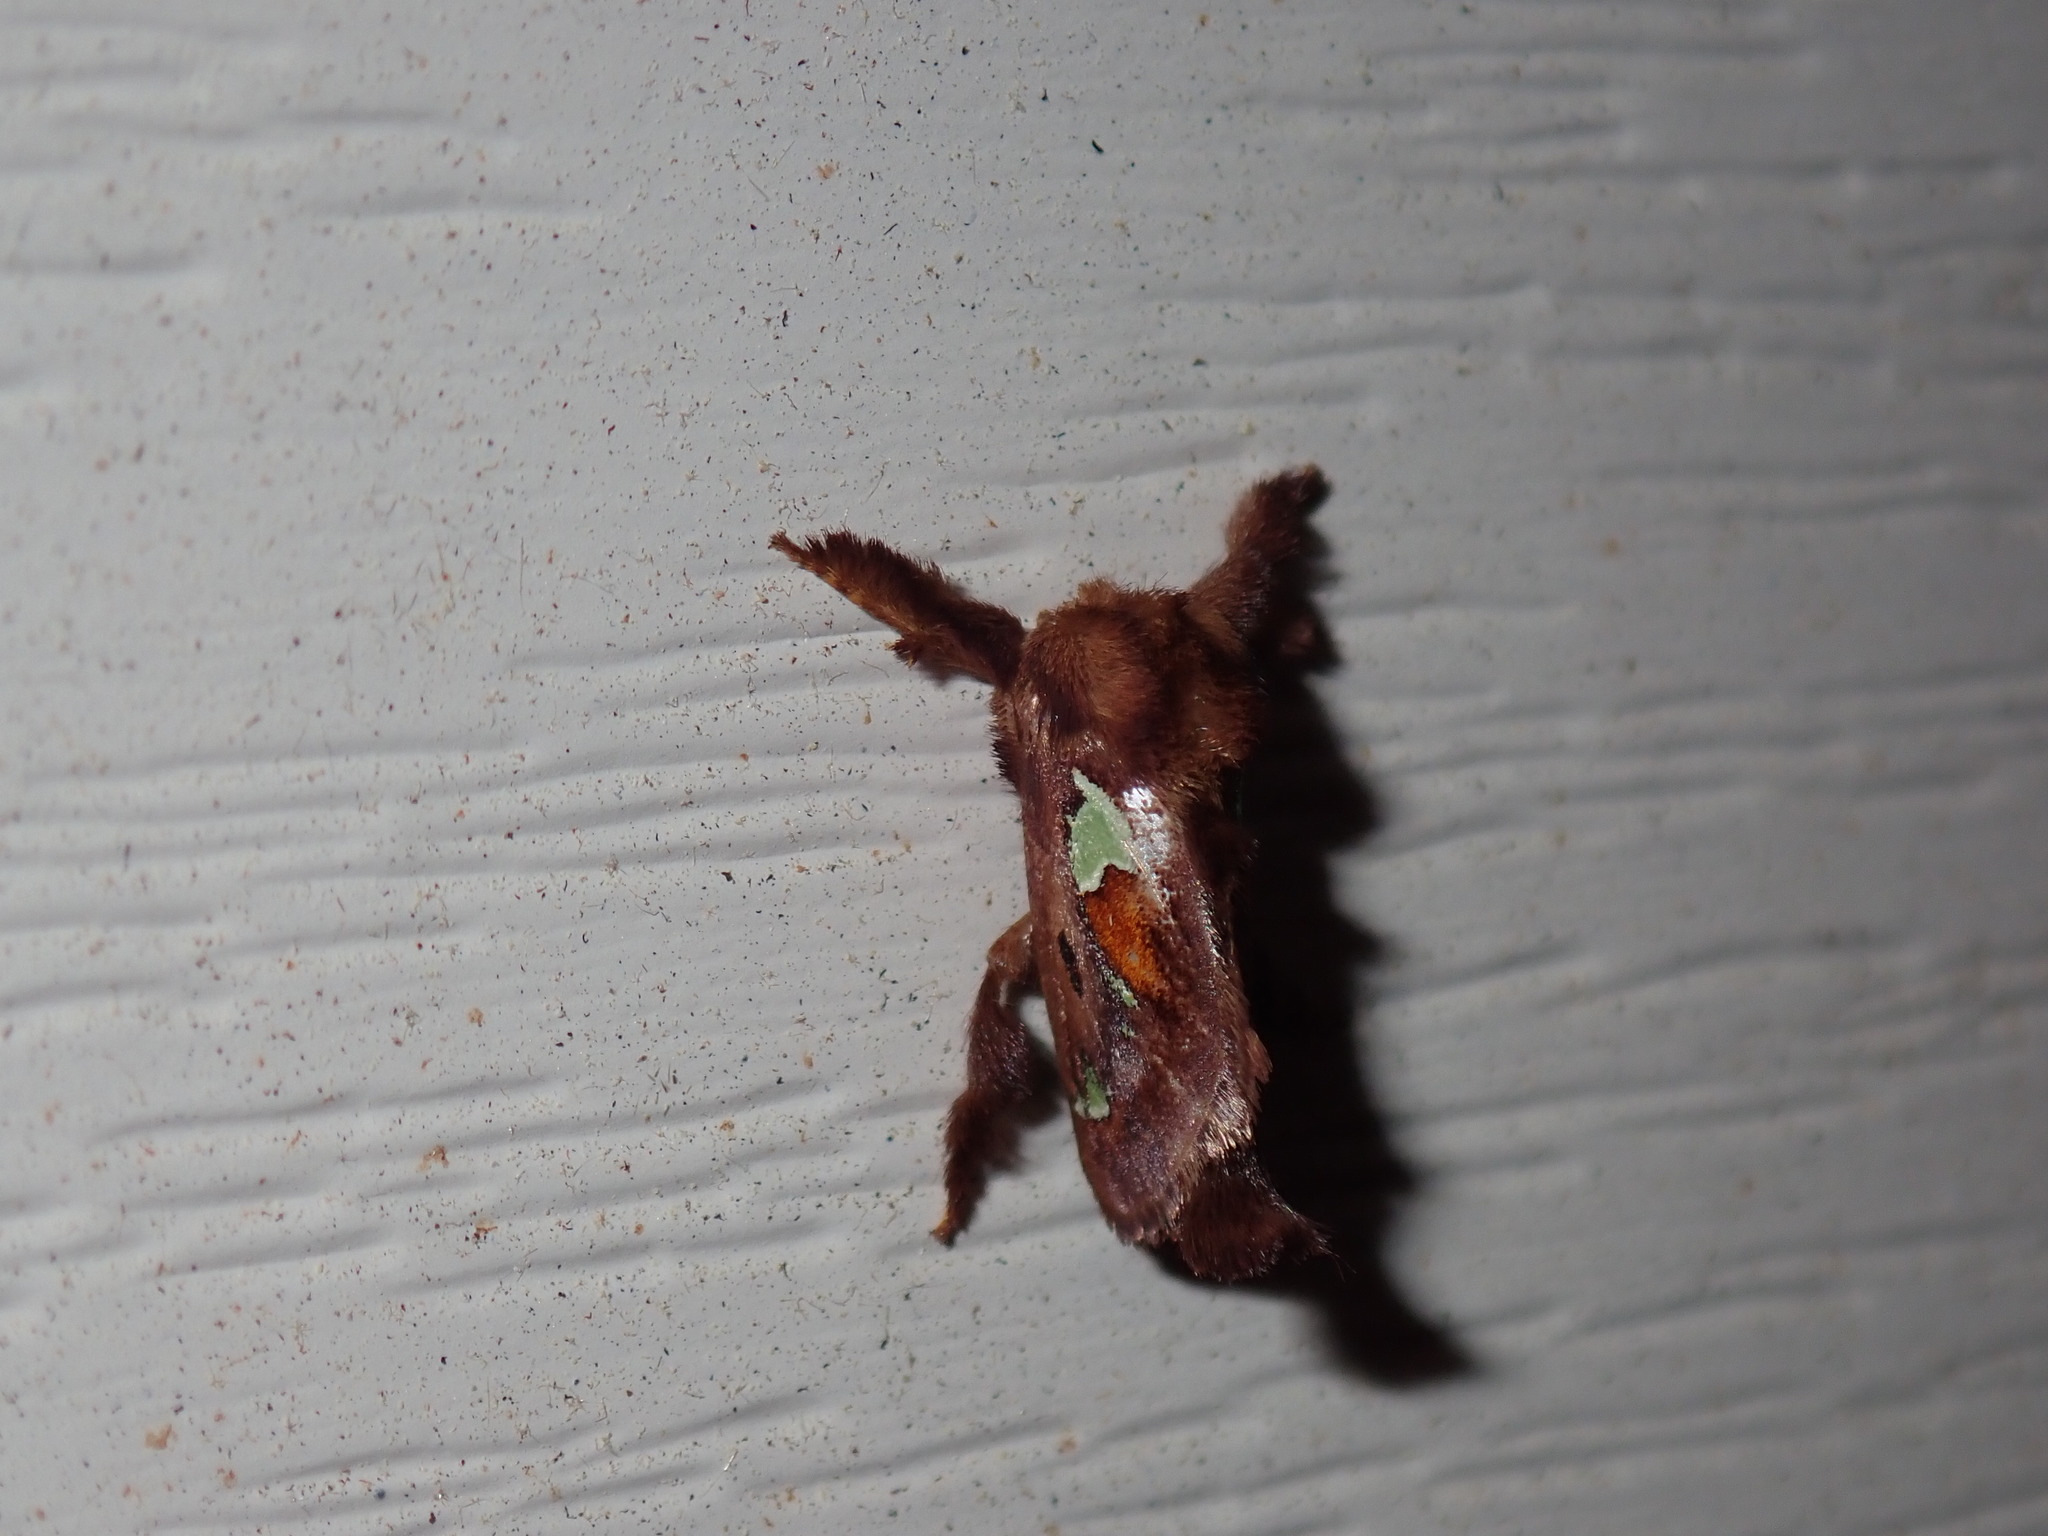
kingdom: Animalia
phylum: Arthropoda
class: Insecta
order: Lepidoptera
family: Limacodidae
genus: Euclea
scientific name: Euclea delphinii
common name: Spiny oak-slug moth
